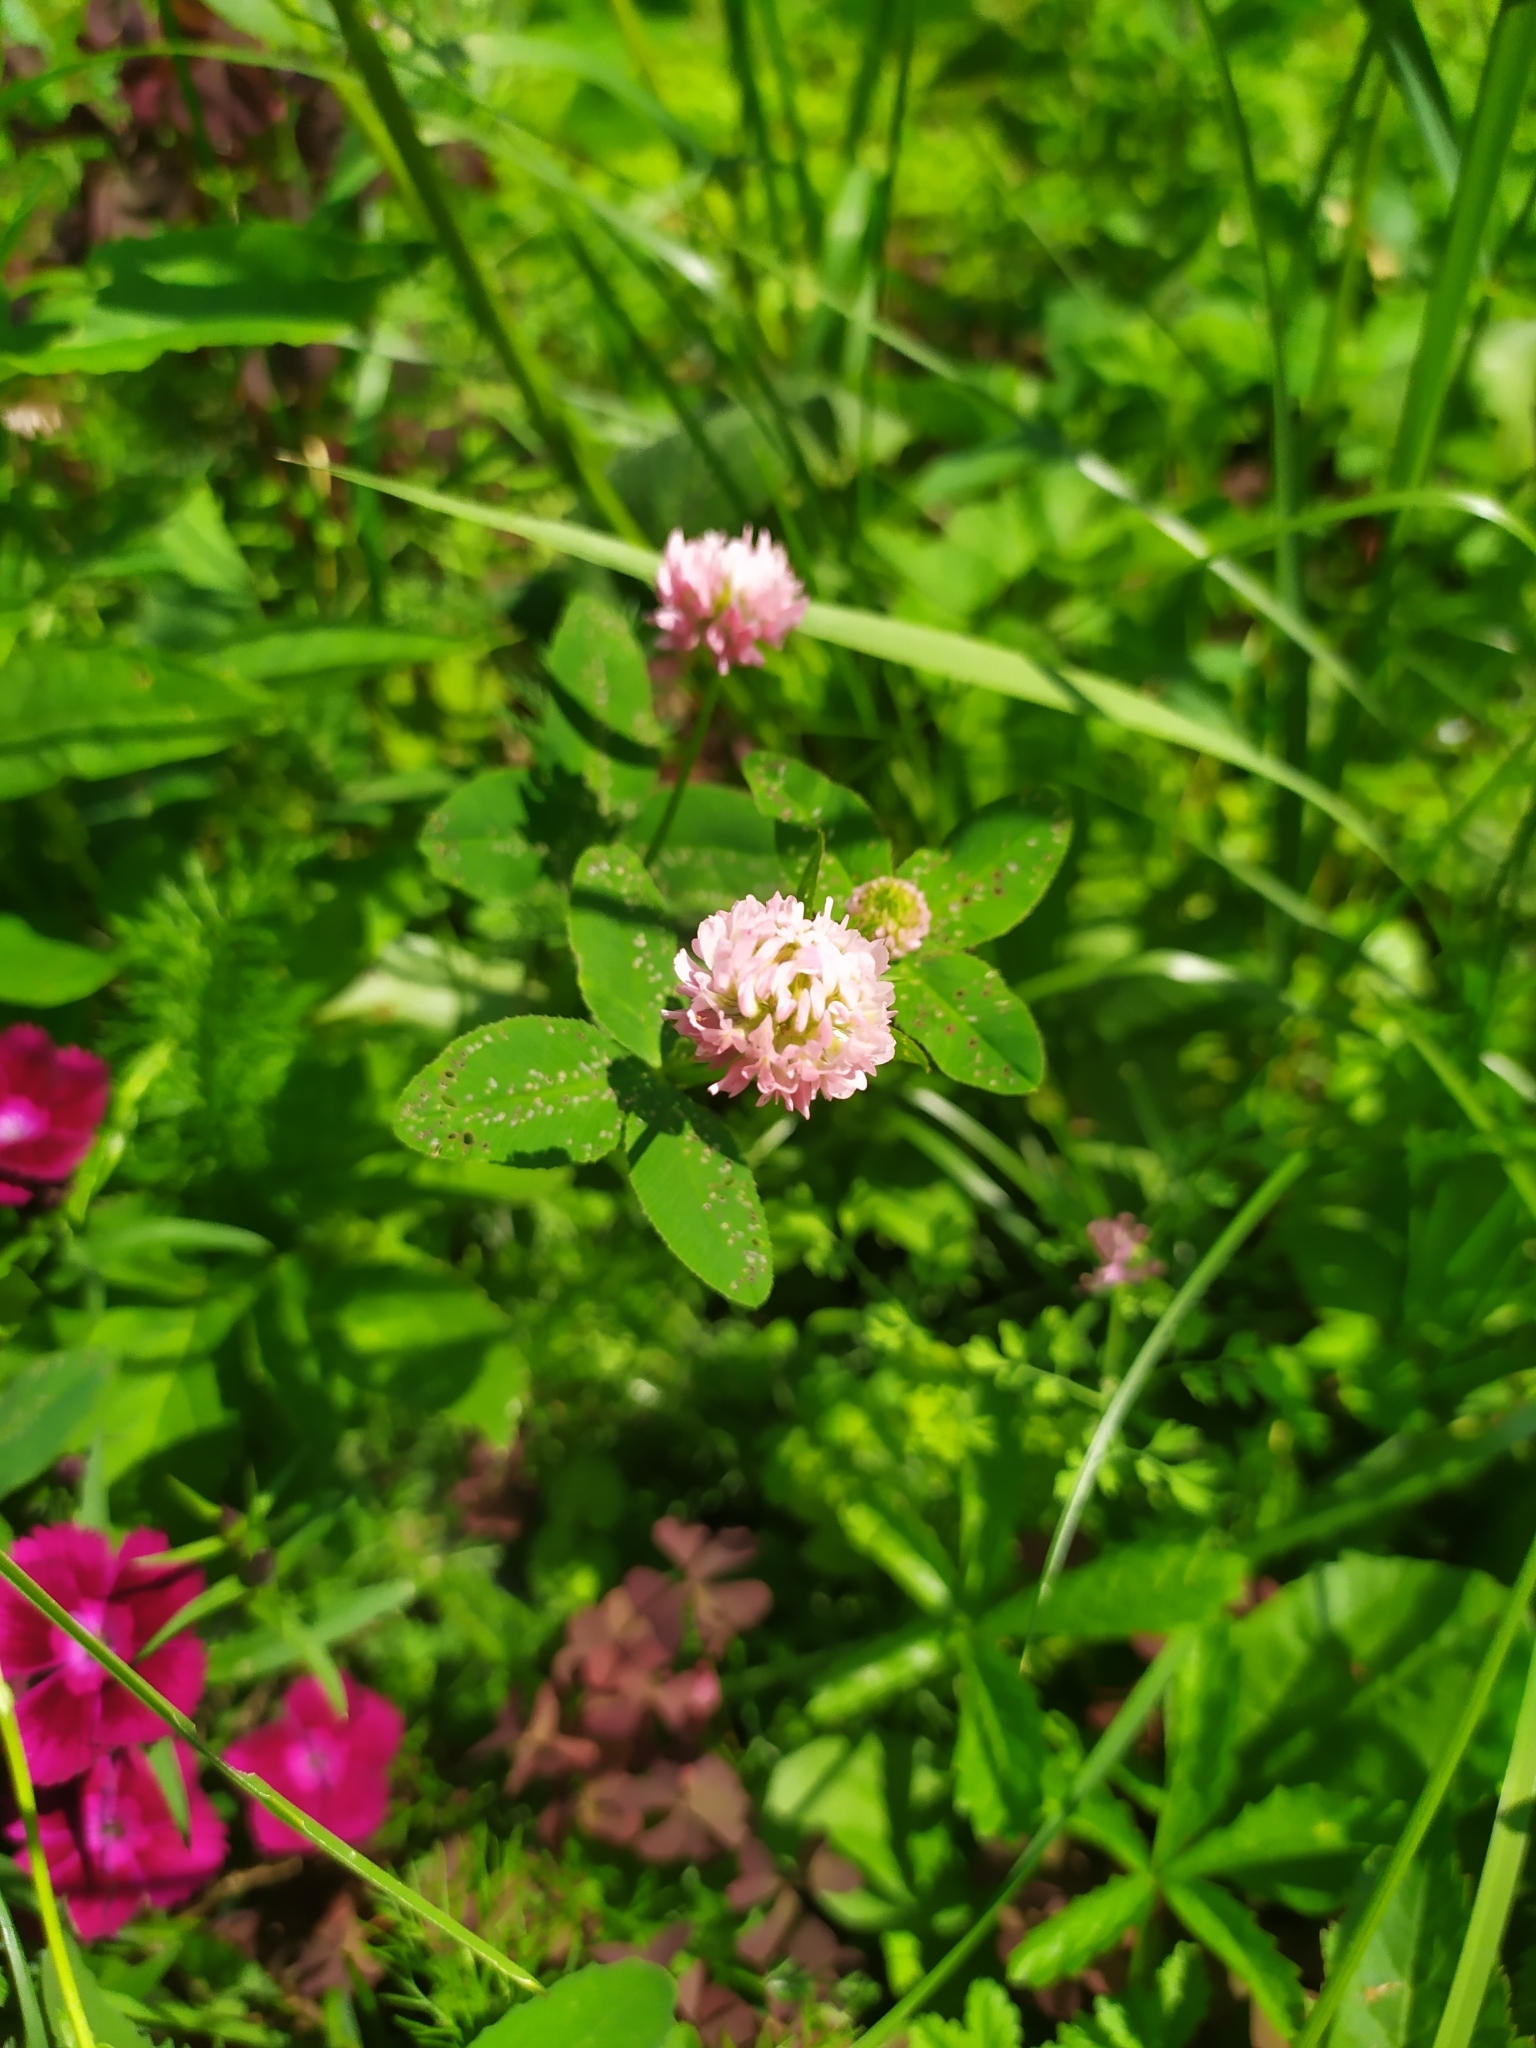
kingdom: Plantae
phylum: Tracheophyta
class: Magnoliopsida
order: Fabales
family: Fabaceae
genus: Trifolium
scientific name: Trifolium hybridum
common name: Alsike clover
